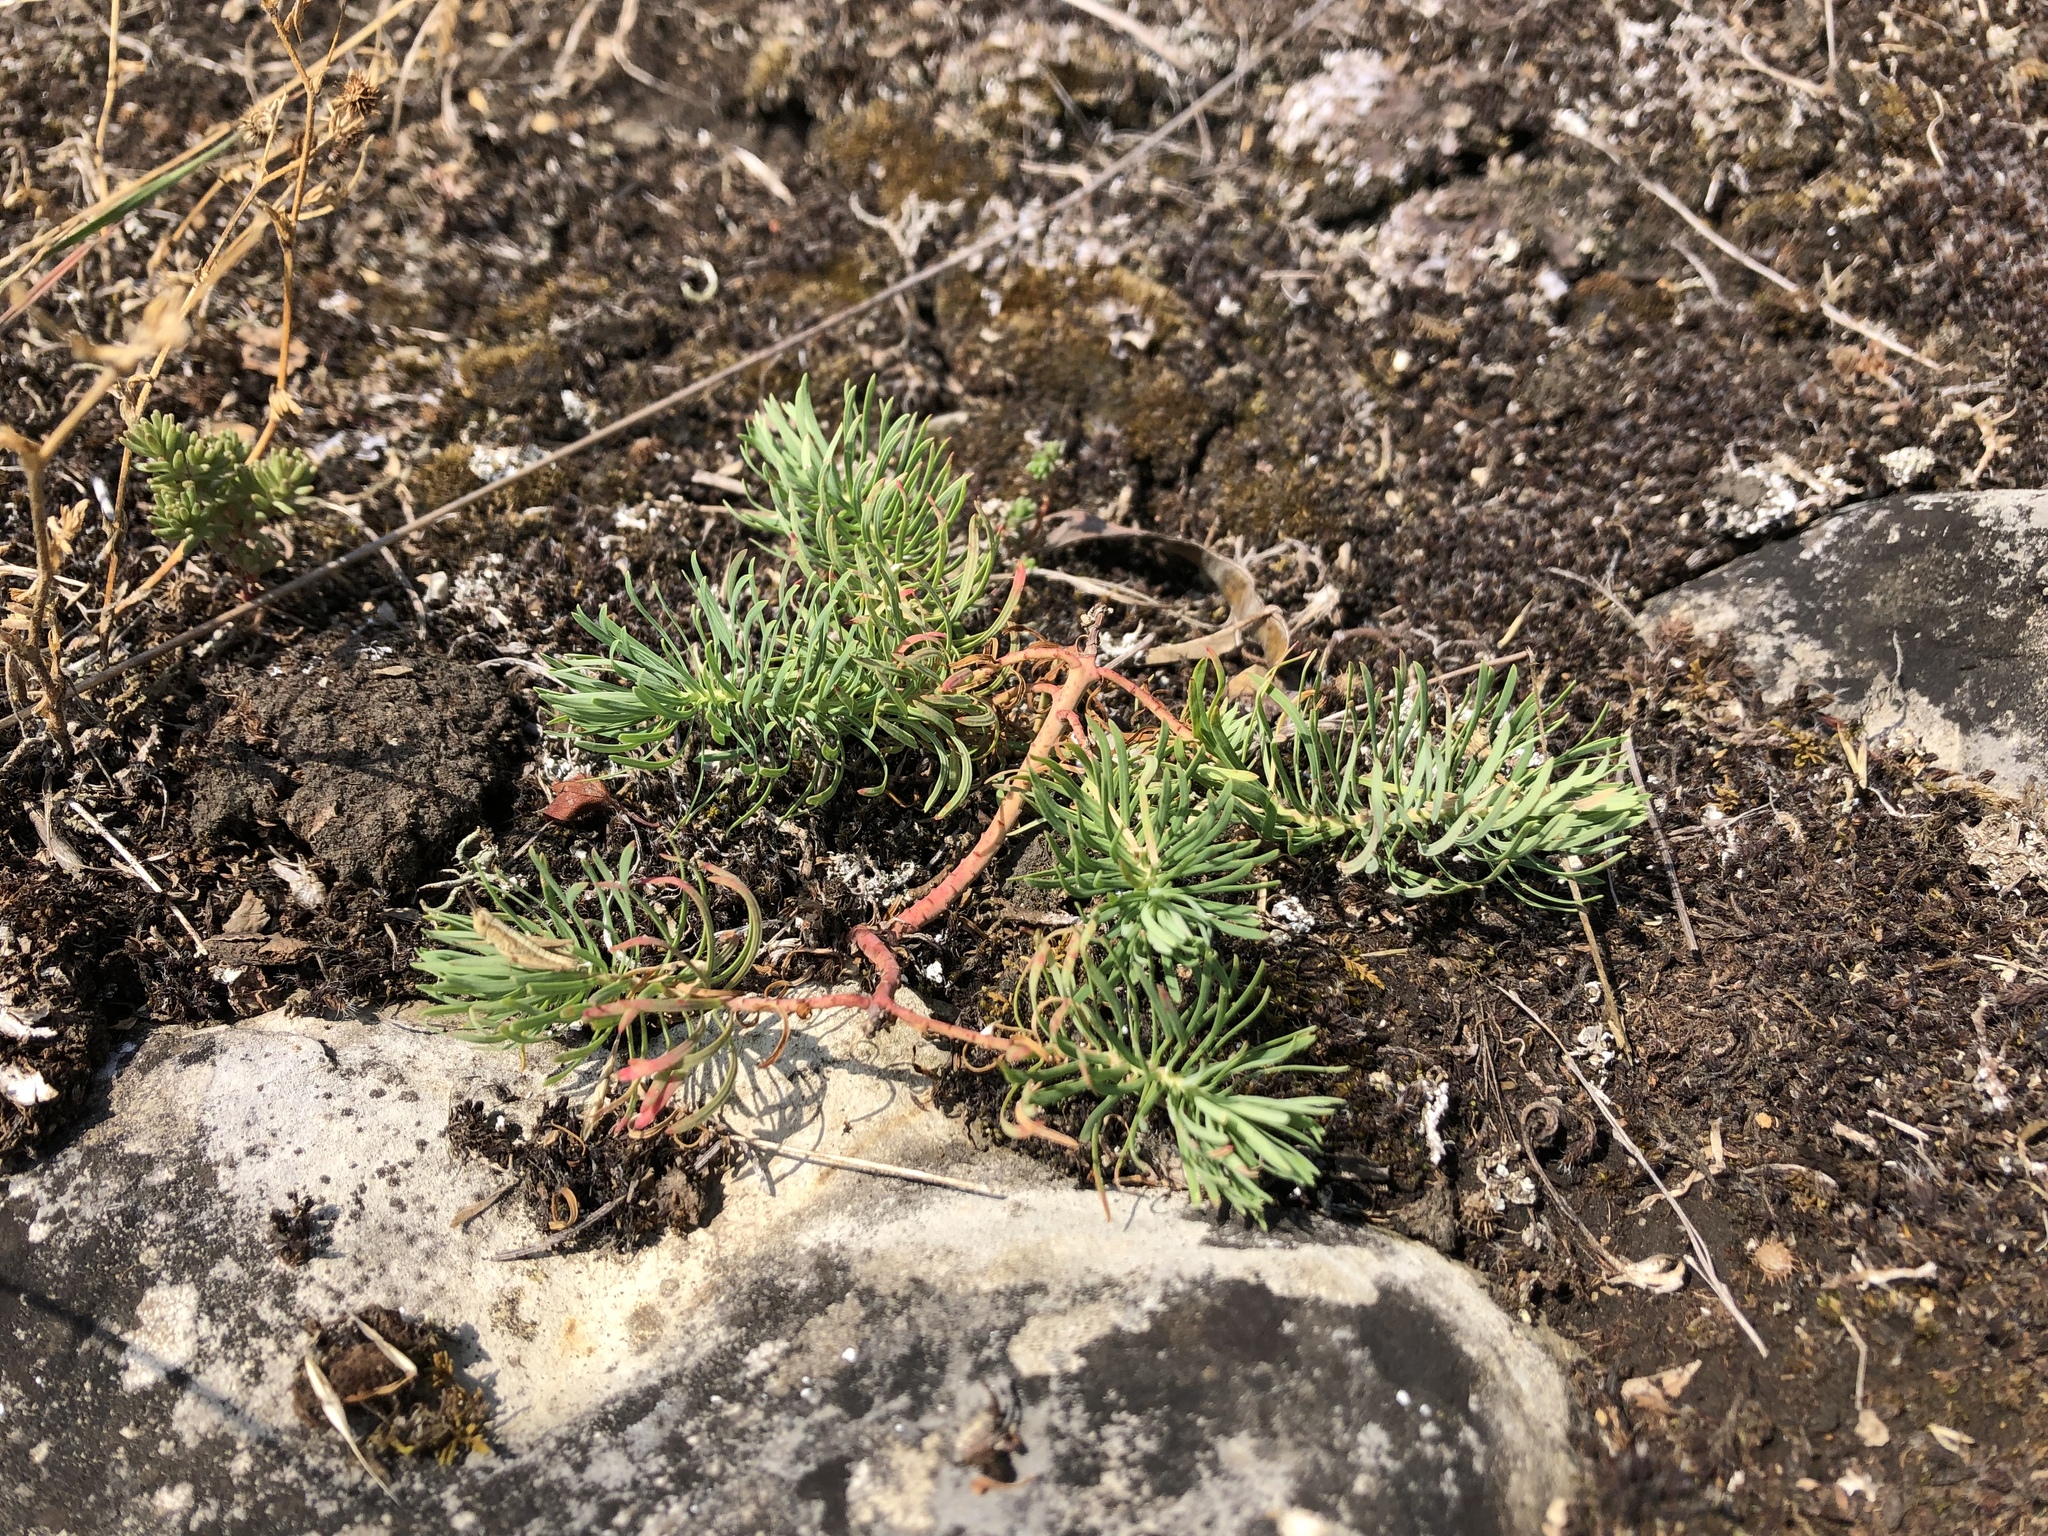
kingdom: Plantae
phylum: Tracheophyta
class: Magnoliopsida
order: Malpighiales
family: Euphorbiaceae
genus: Euphorbia
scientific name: Euphorbia cyparissias
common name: Cypress spurge
